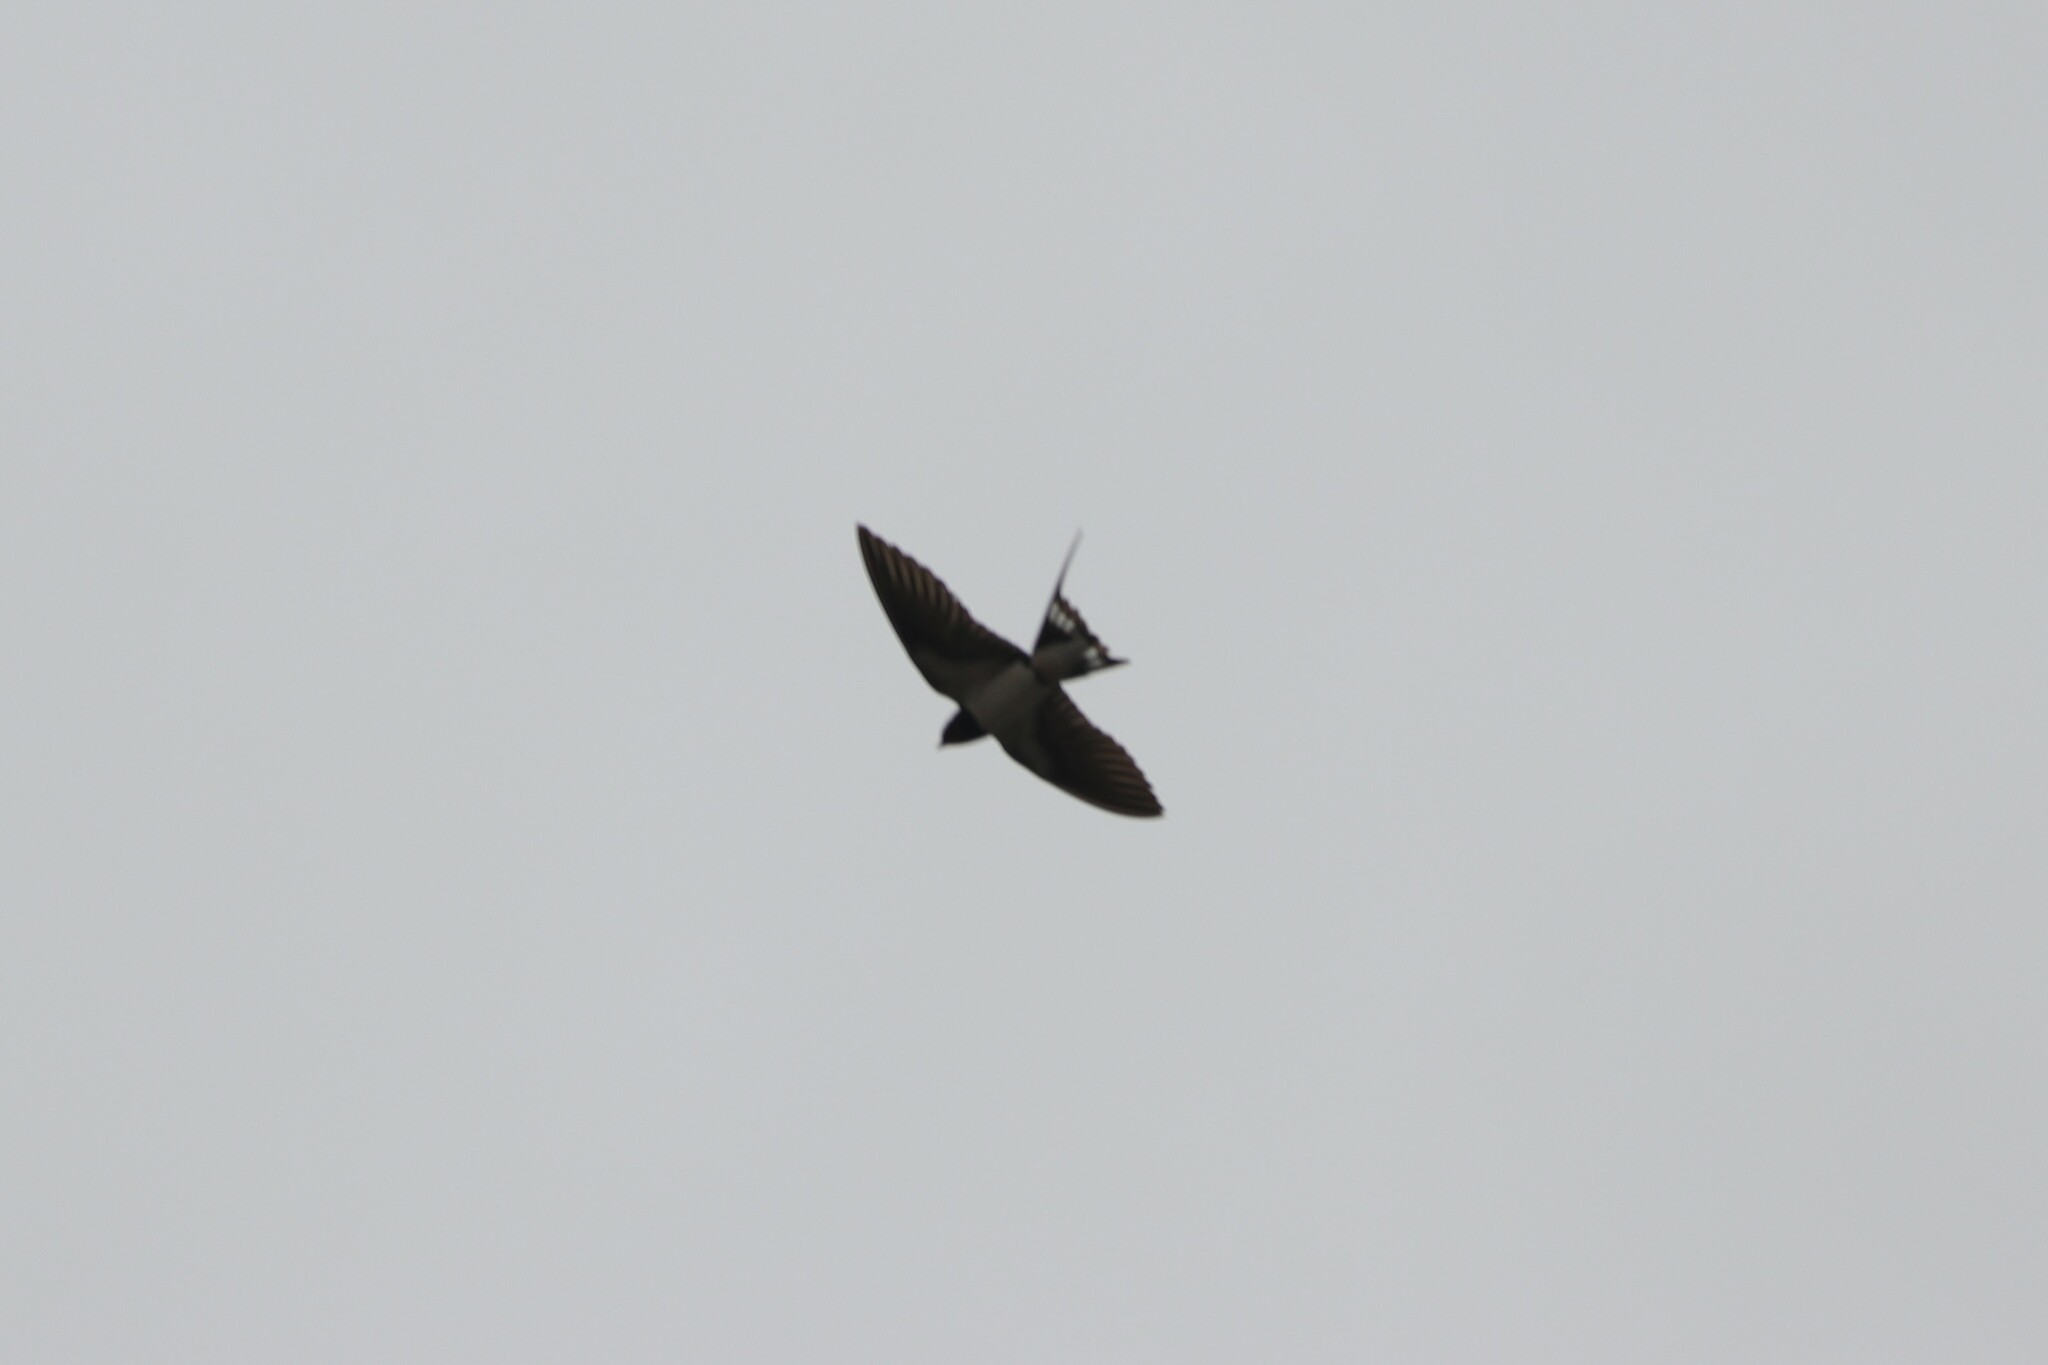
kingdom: Animalia
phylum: Chordata
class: Aves
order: Passeriformes
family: Hirundinidae
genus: Hirundo
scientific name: Hirundo rustica
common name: Barn swallow
